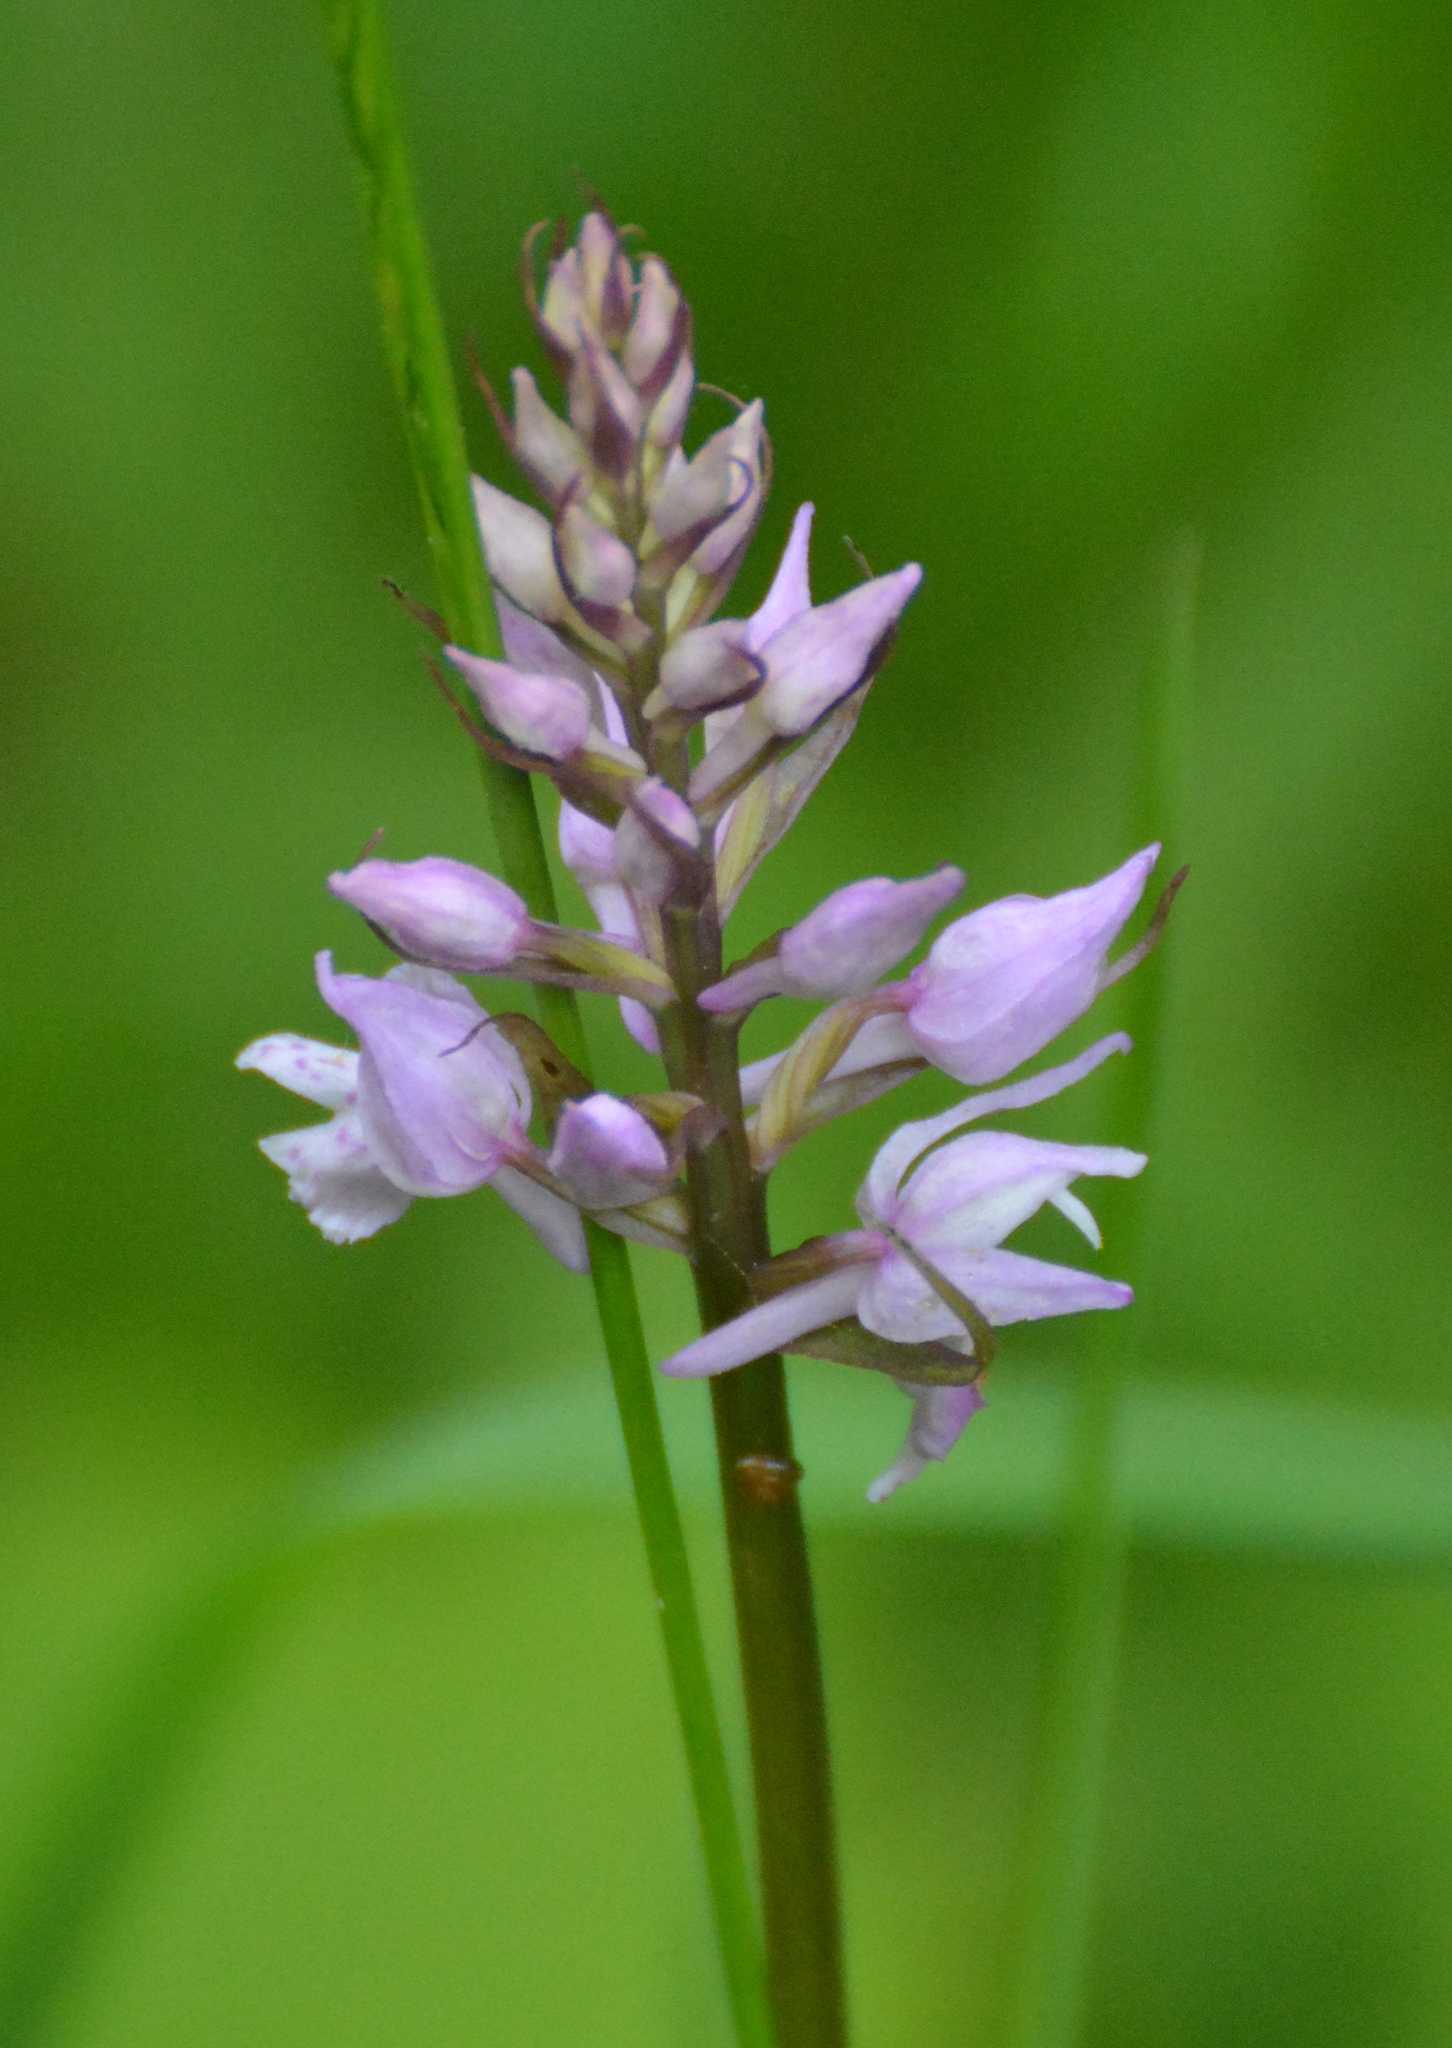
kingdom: Plantae
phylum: Tracheophyta
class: Liliopsida
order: Asparagales
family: Orchidaceae
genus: Dactylorhiza
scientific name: Dactylorhiza maculata
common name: Heath spotted-orchid
